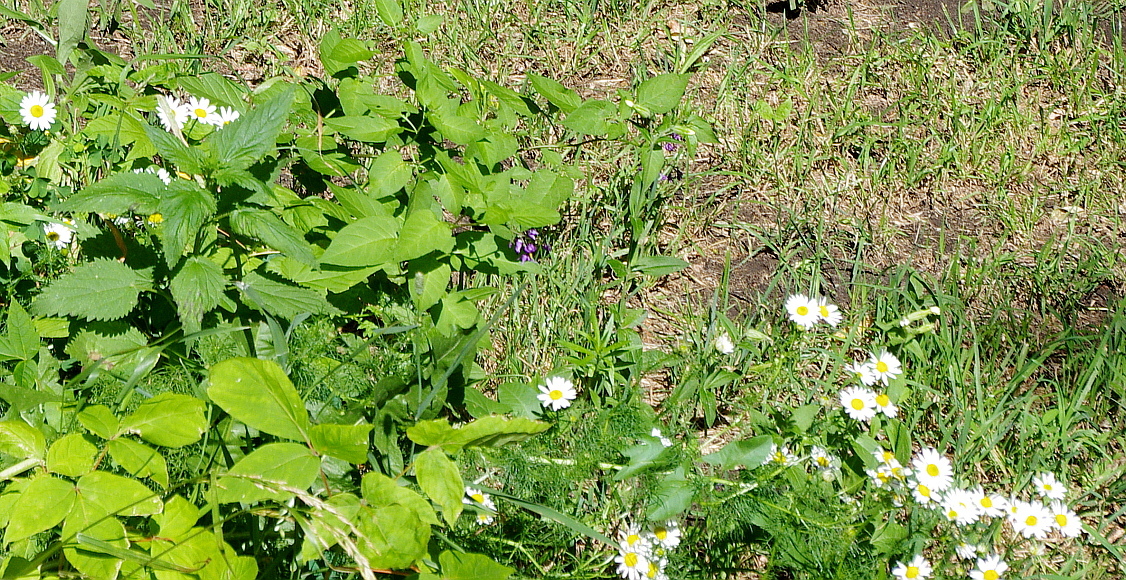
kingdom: Plantae
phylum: Tracheophyta
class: Magnoliopsida
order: Asterales
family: Asteraceae
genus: Tripleurospermum
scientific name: Tripleurospermum inodorum
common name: Scentless mayweed
